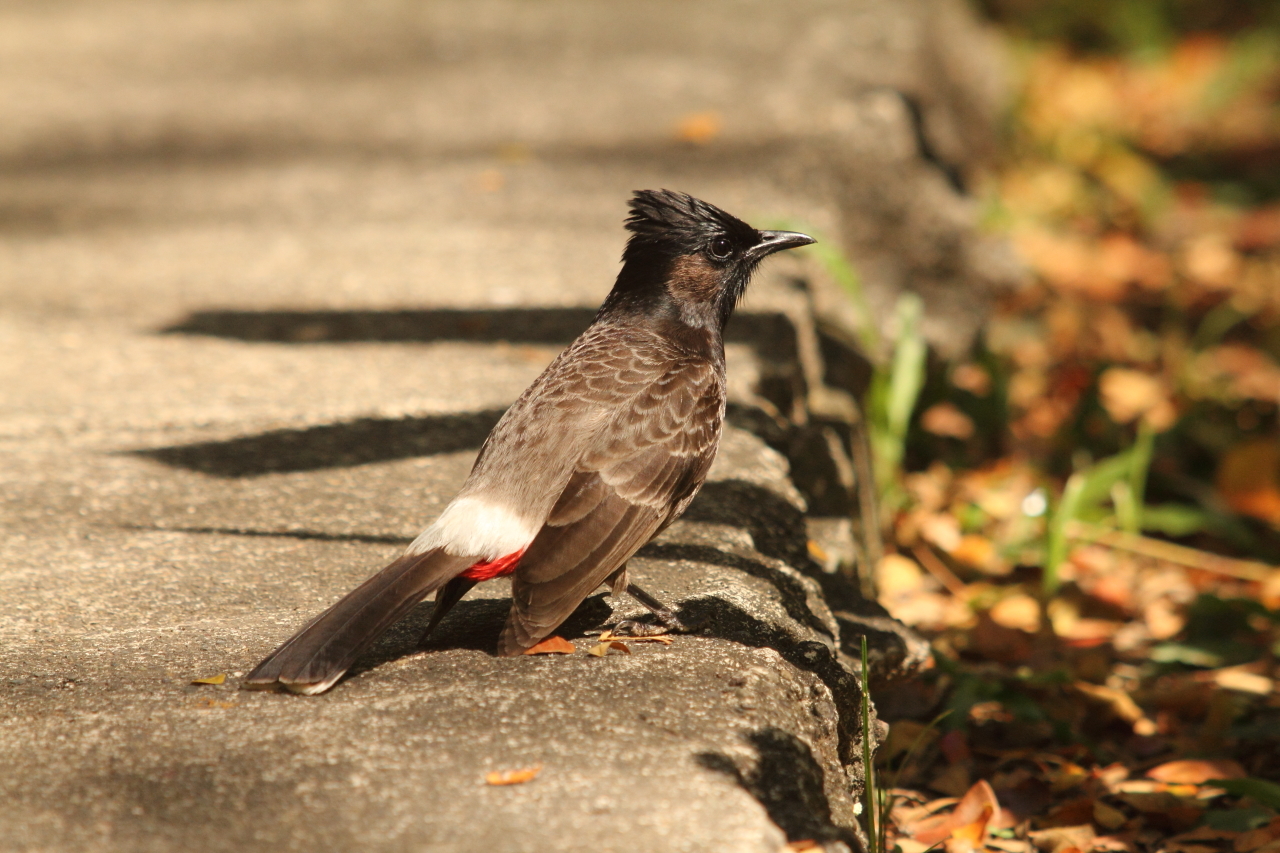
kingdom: Animalia
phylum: Chordata
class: Aves
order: Passeriformes
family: Pycnonotidae
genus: Pycnonotus
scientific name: Pycnonotus cafer
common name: Red-vented bulbul
